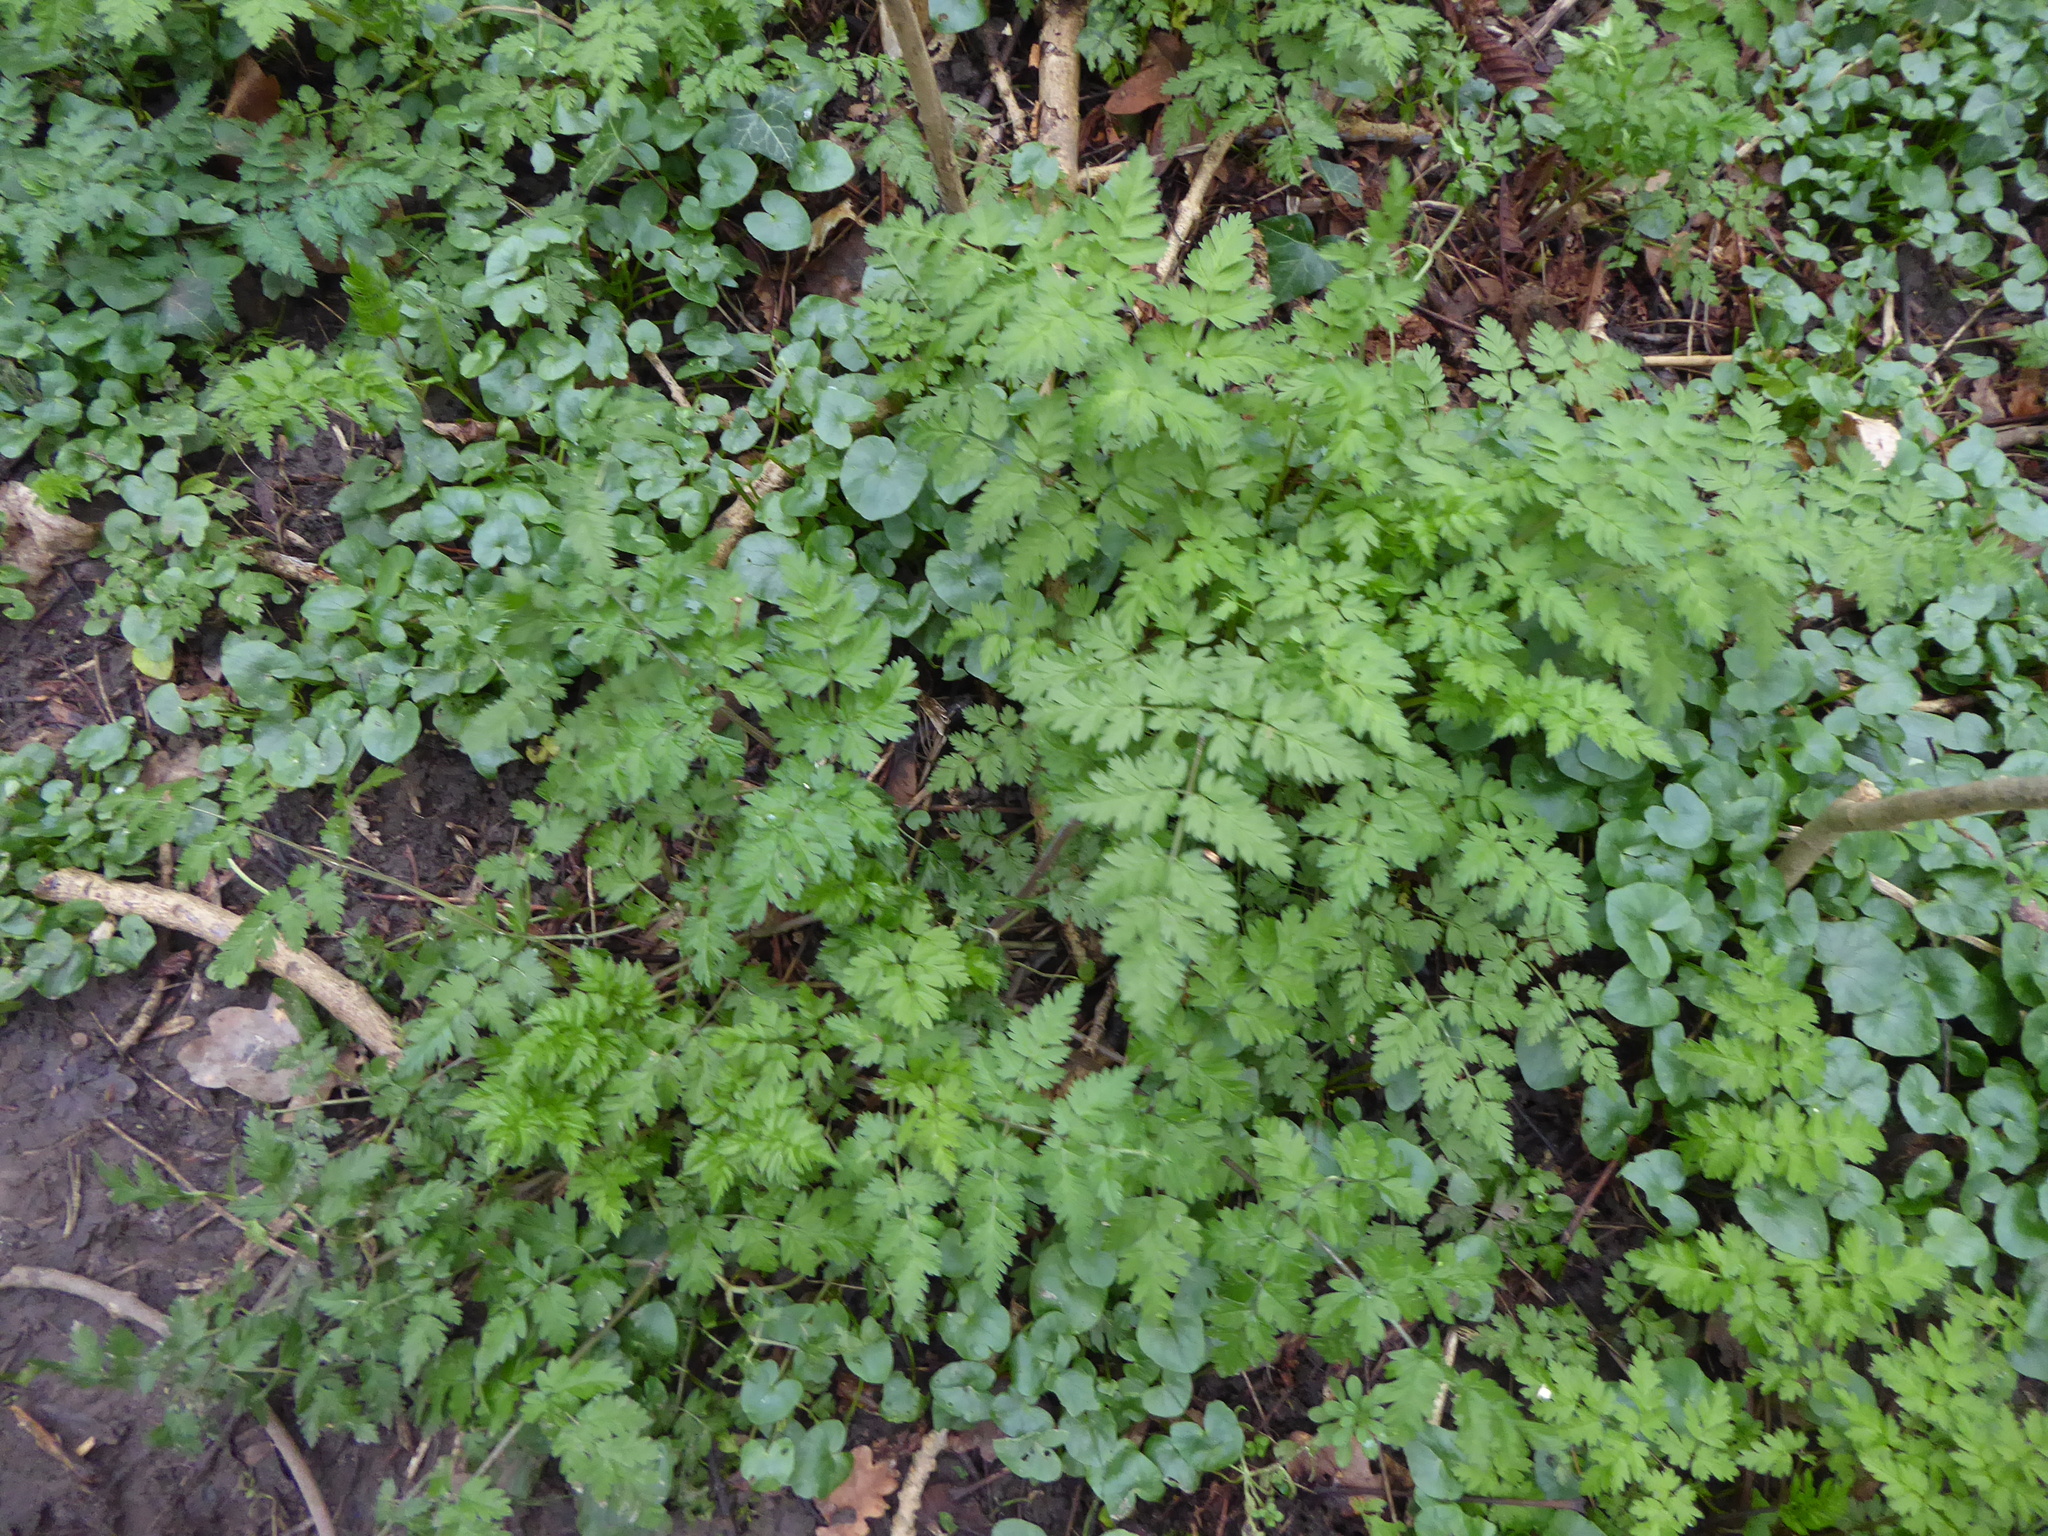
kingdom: Plantae
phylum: Tracheophyta
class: Magnoliopsida
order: Apiales
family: Apiaceae
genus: Anthriscus
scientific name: Anthriscus sylvestris
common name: Cow parsley
